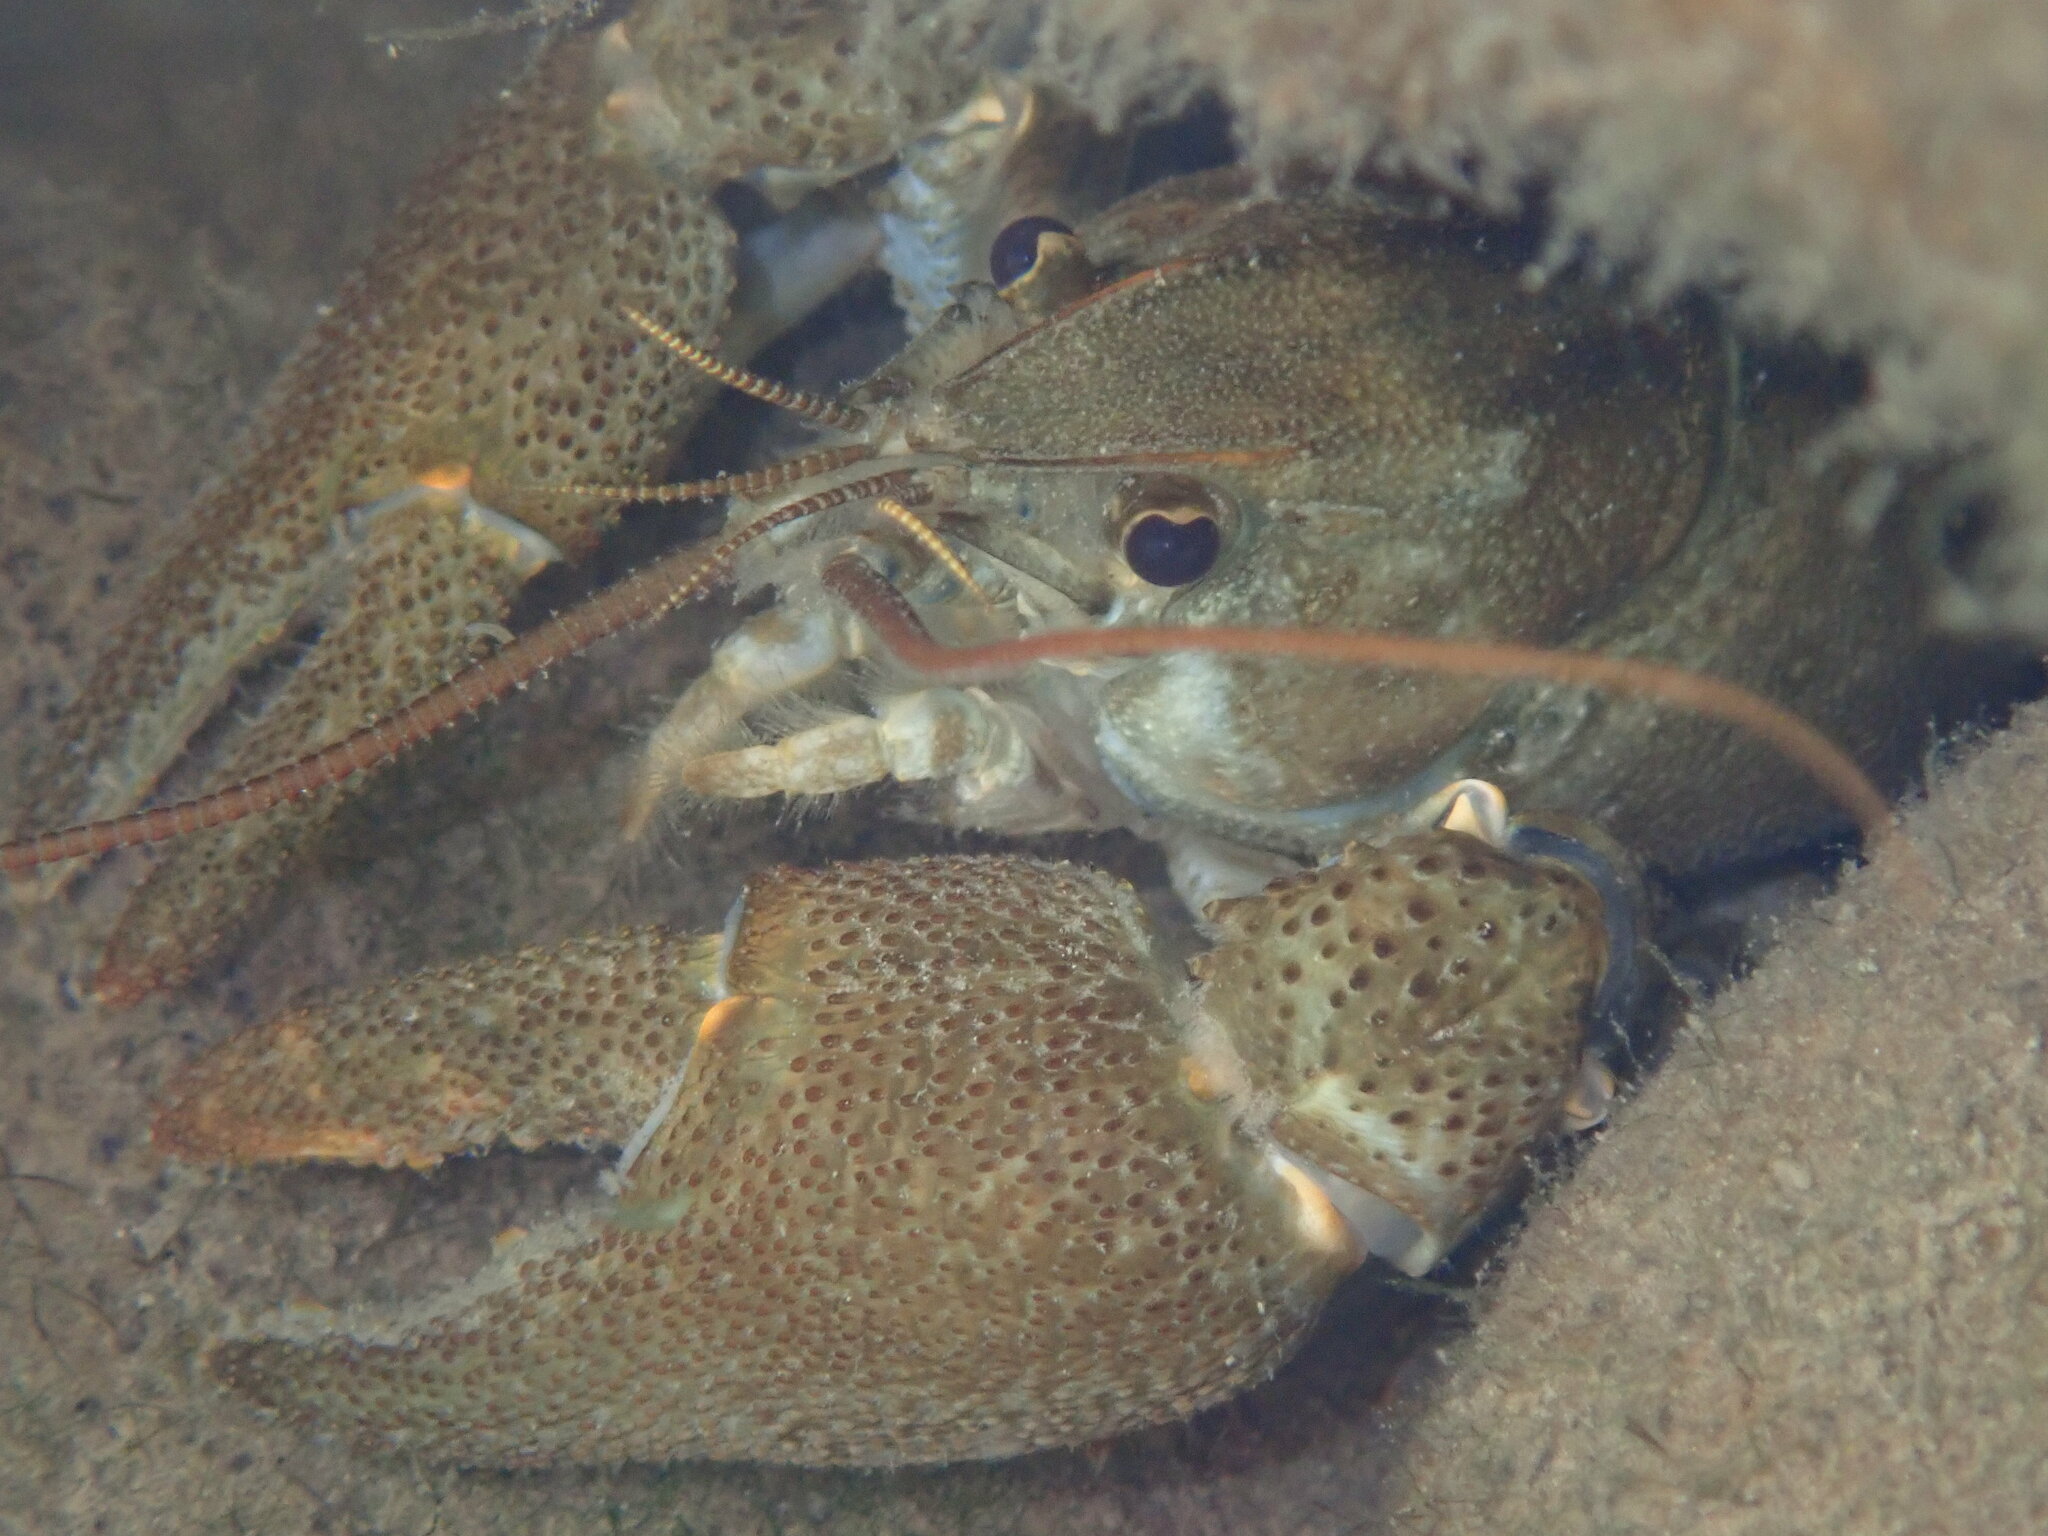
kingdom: Animalia
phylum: Arthropoda
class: Malacostraca
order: Decapoda
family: Astacidae
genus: Austropotamobius
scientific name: Austropotamobius pallipes
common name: White-clawed crayfish
